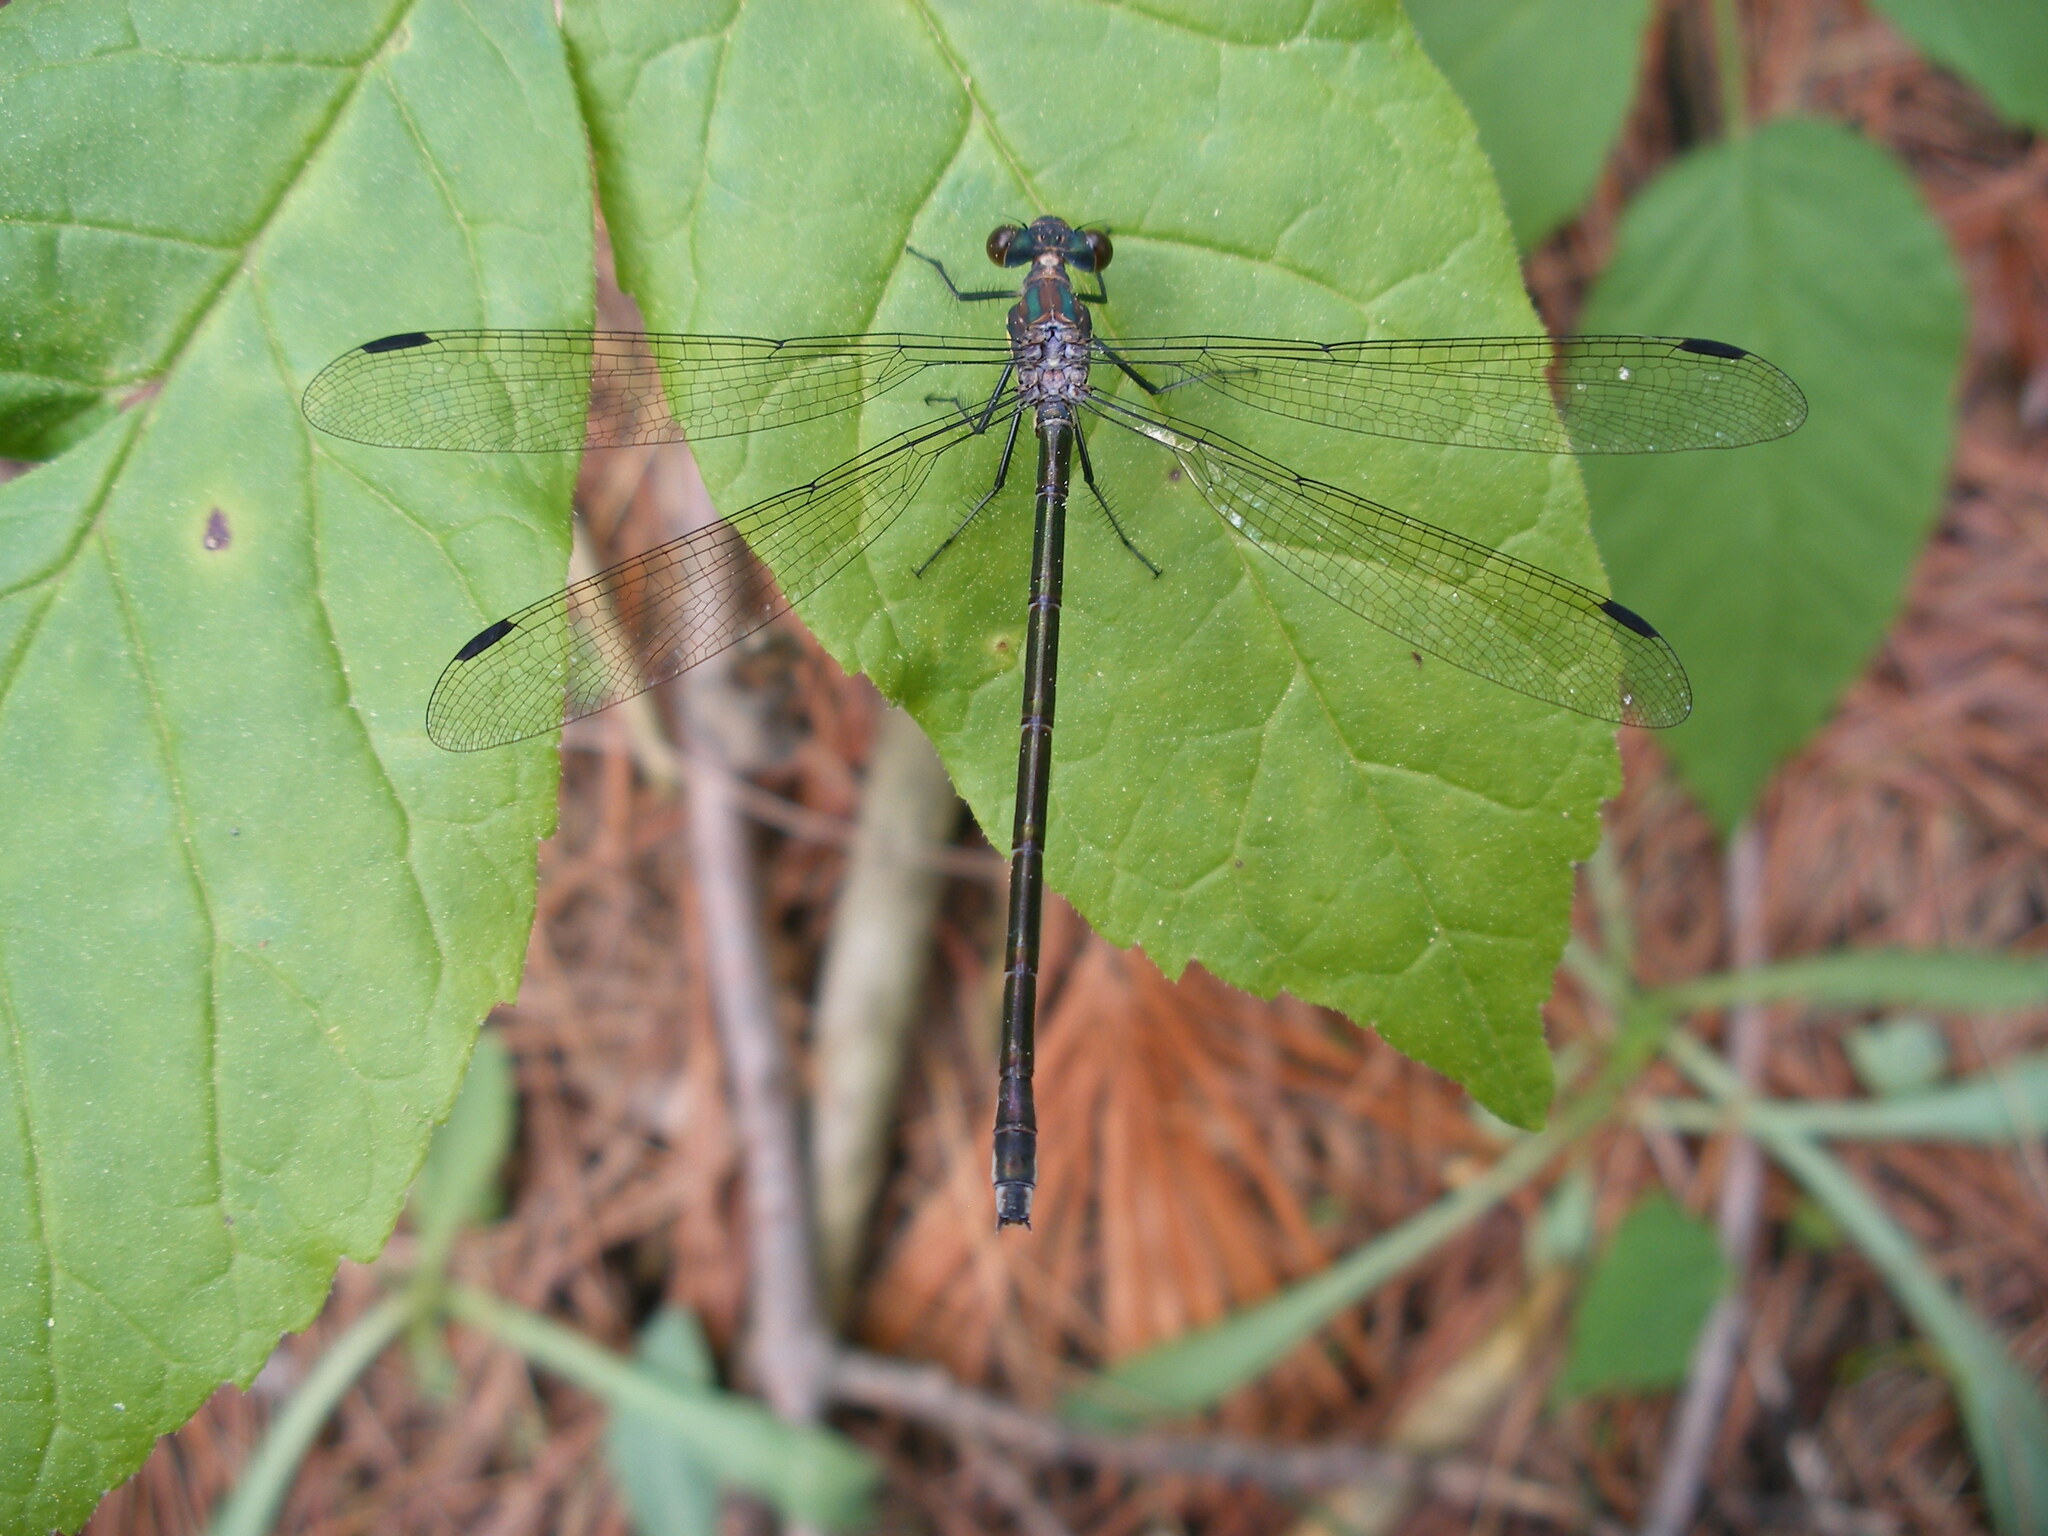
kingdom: Animalia
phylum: Arthropoda
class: Insecta
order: Odonata
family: Lestidae
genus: Lestes
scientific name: Lestes eurinus
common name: Amber-winged spreadwing
